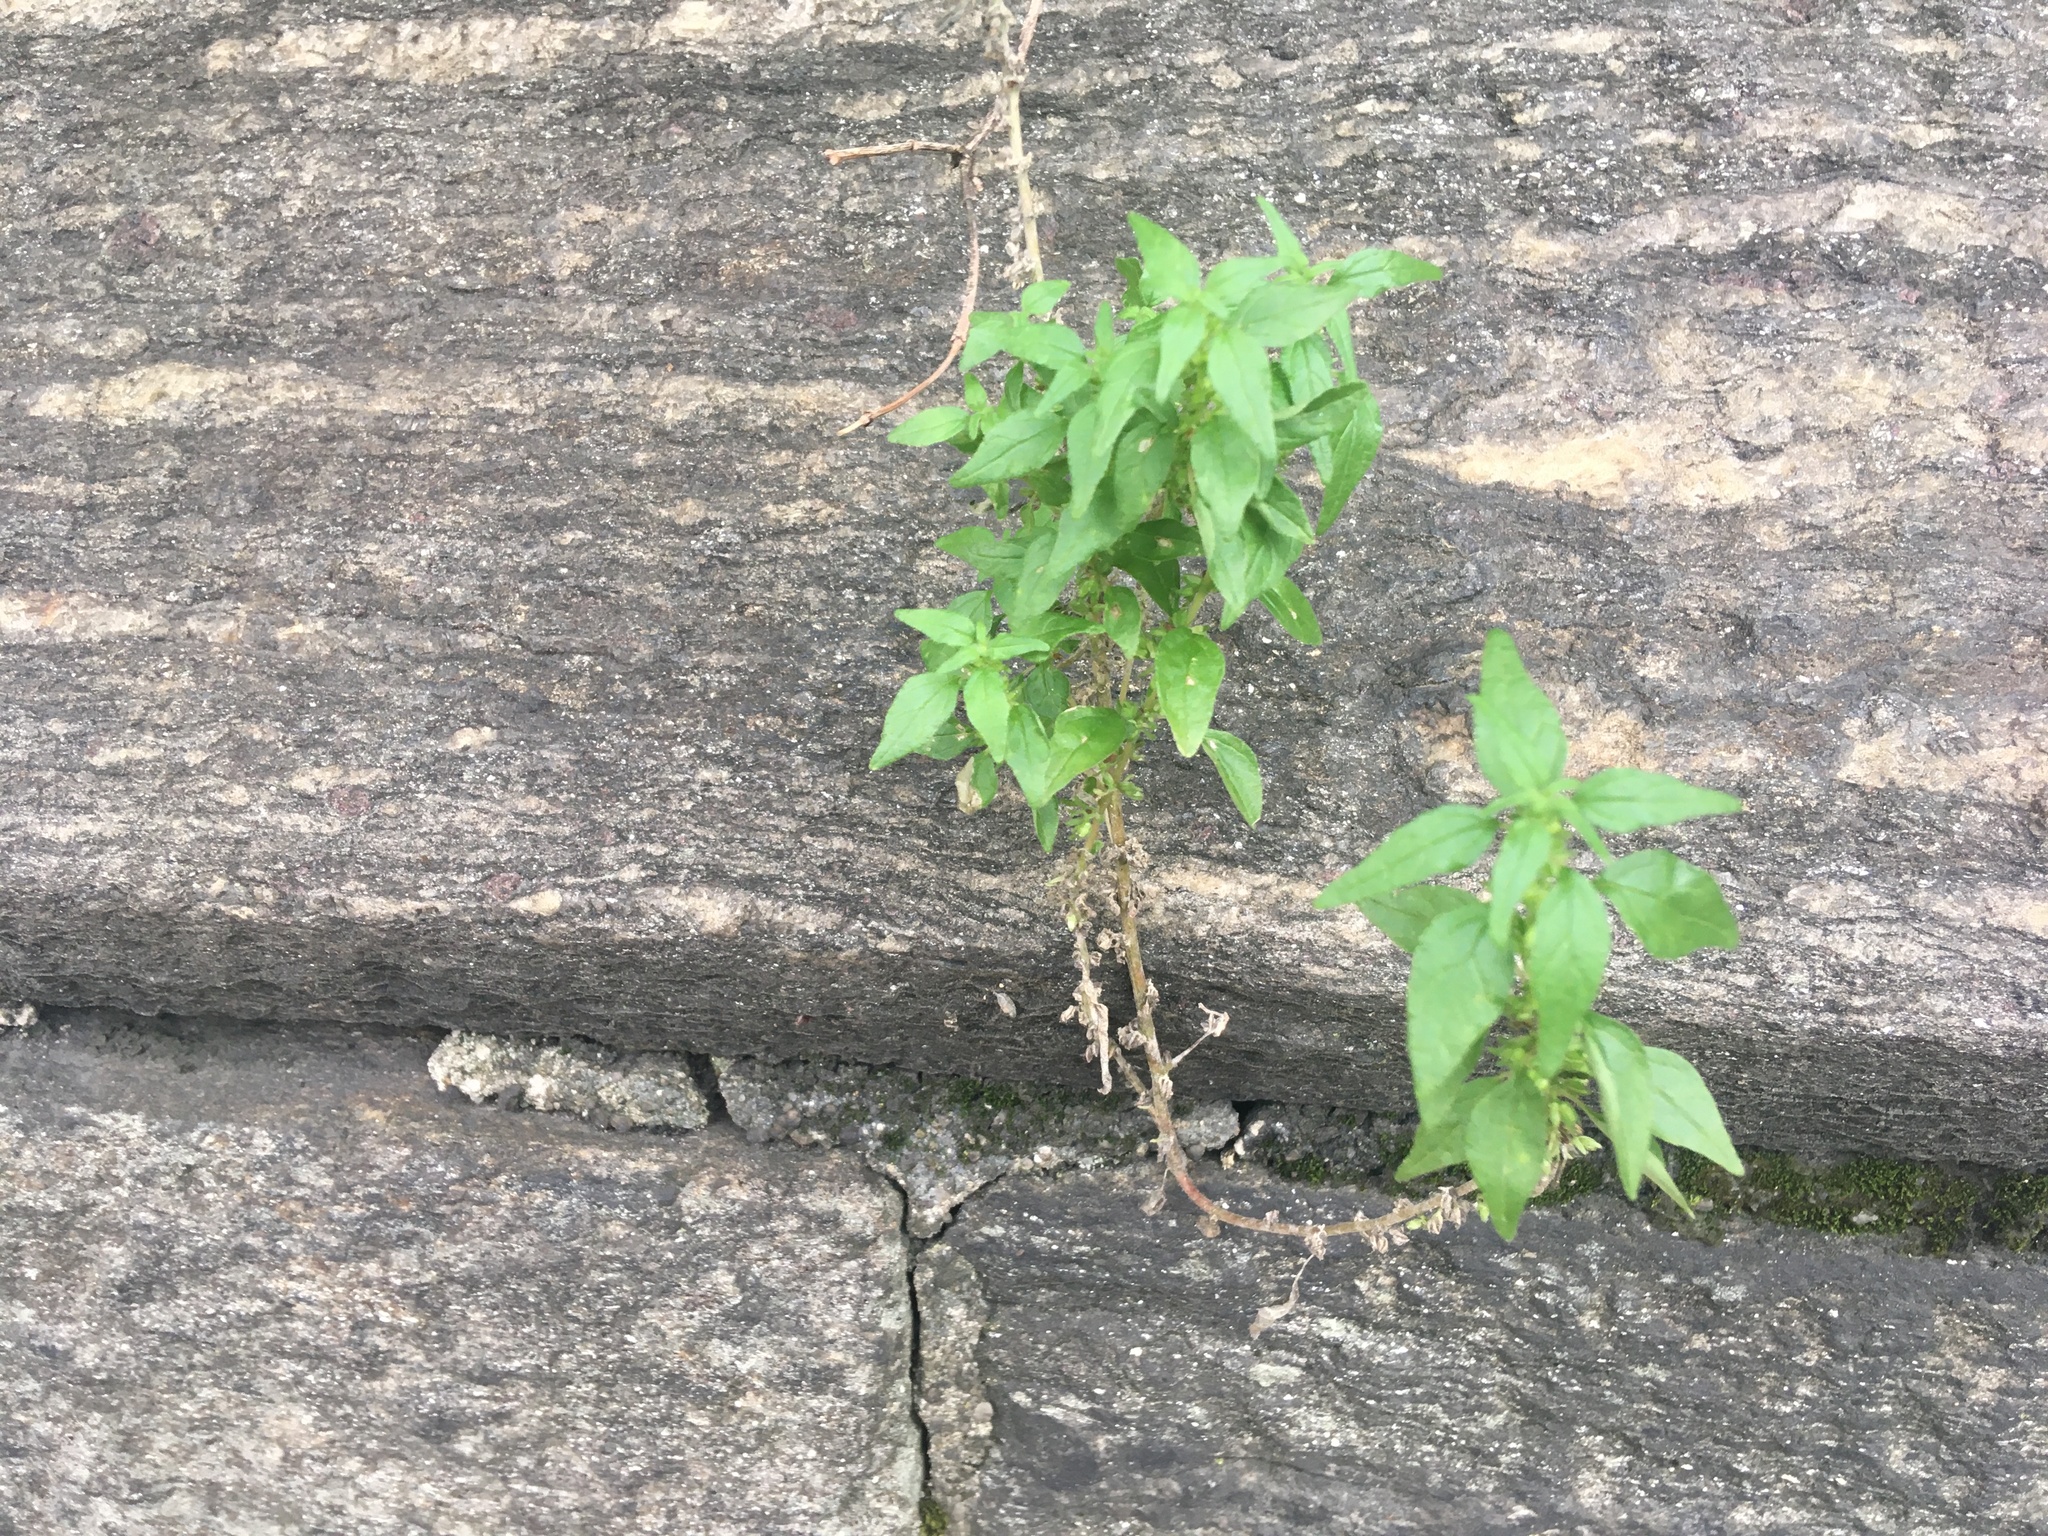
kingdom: Plantae
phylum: Tracheophyta
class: Magnoliopsida
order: Rosales
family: Urticaceae
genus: Parietaria
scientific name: Parietaria pensylvanica
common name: Pennsylvania pellitory
